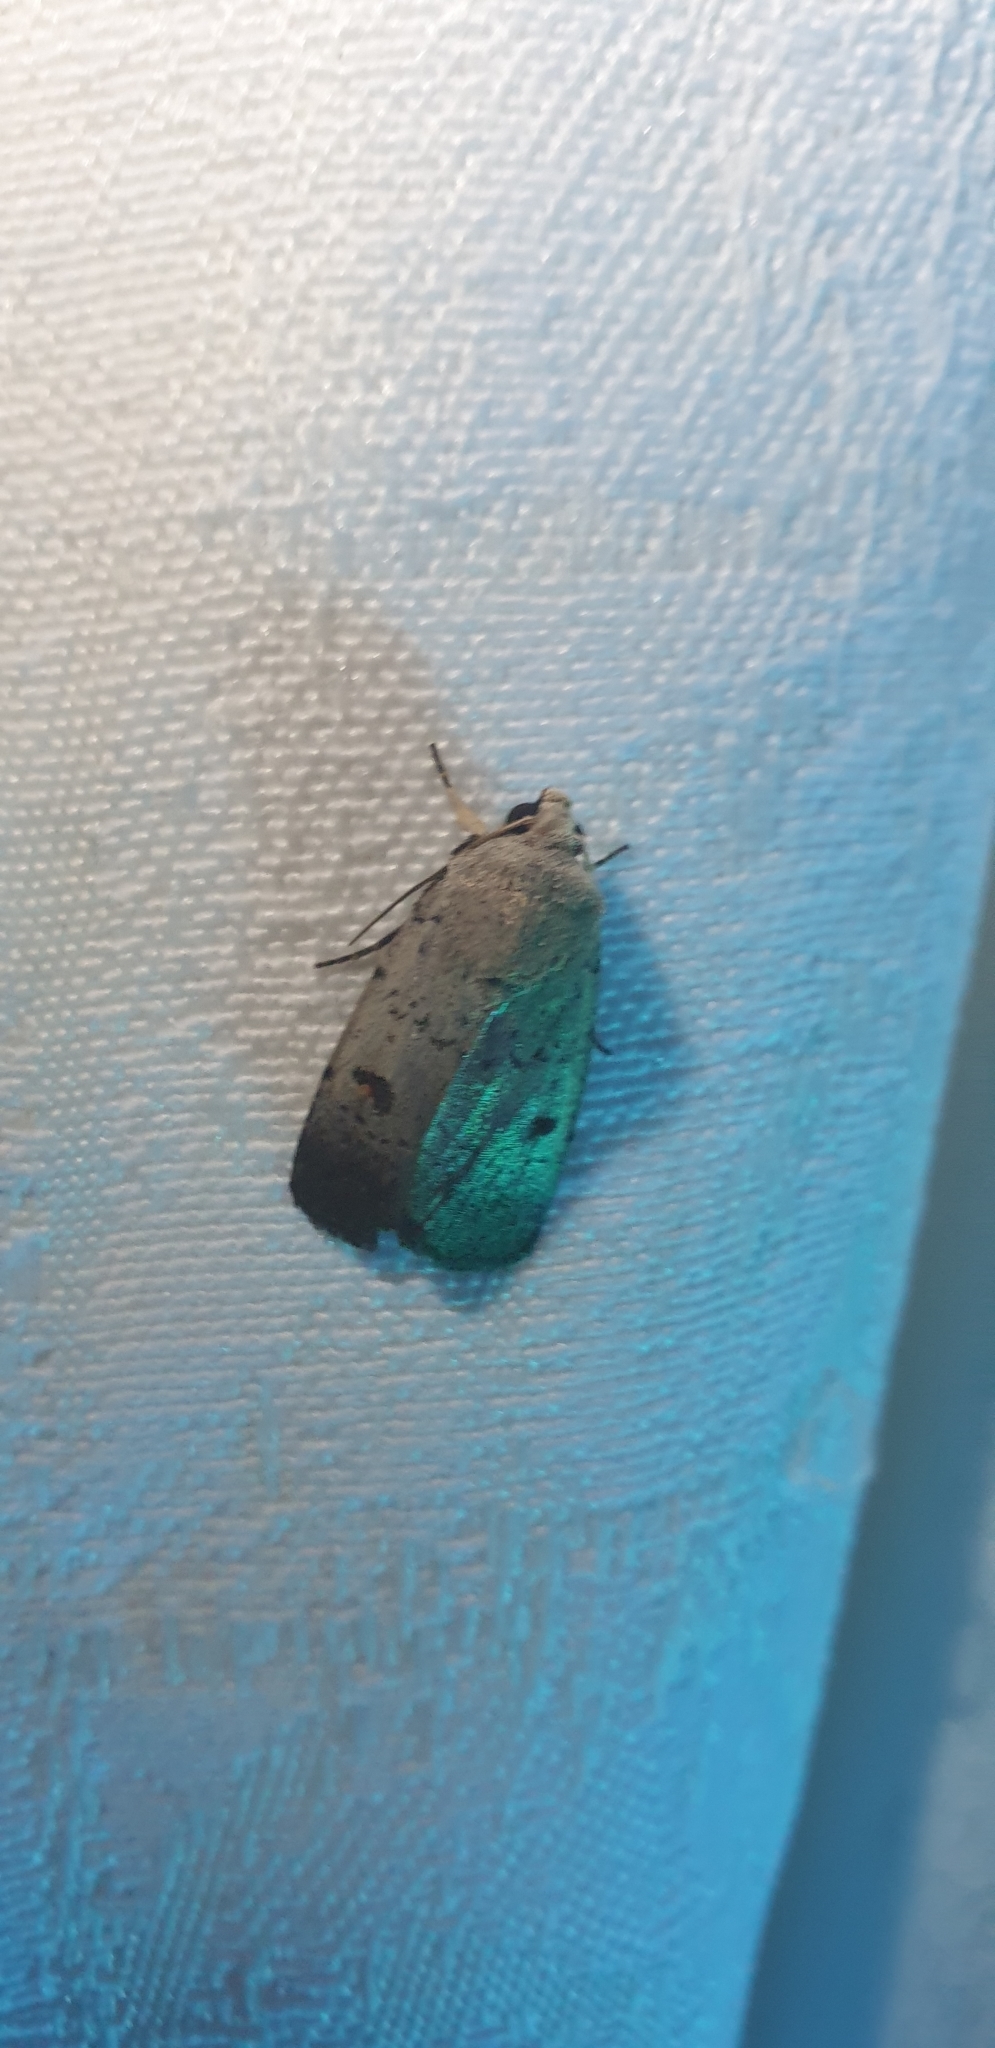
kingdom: Animalia
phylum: Arthropoda
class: Insecta
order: Lepidoptera
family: Noctuidae
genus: Proteuxoa
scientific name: Proteuxoa tibiata
